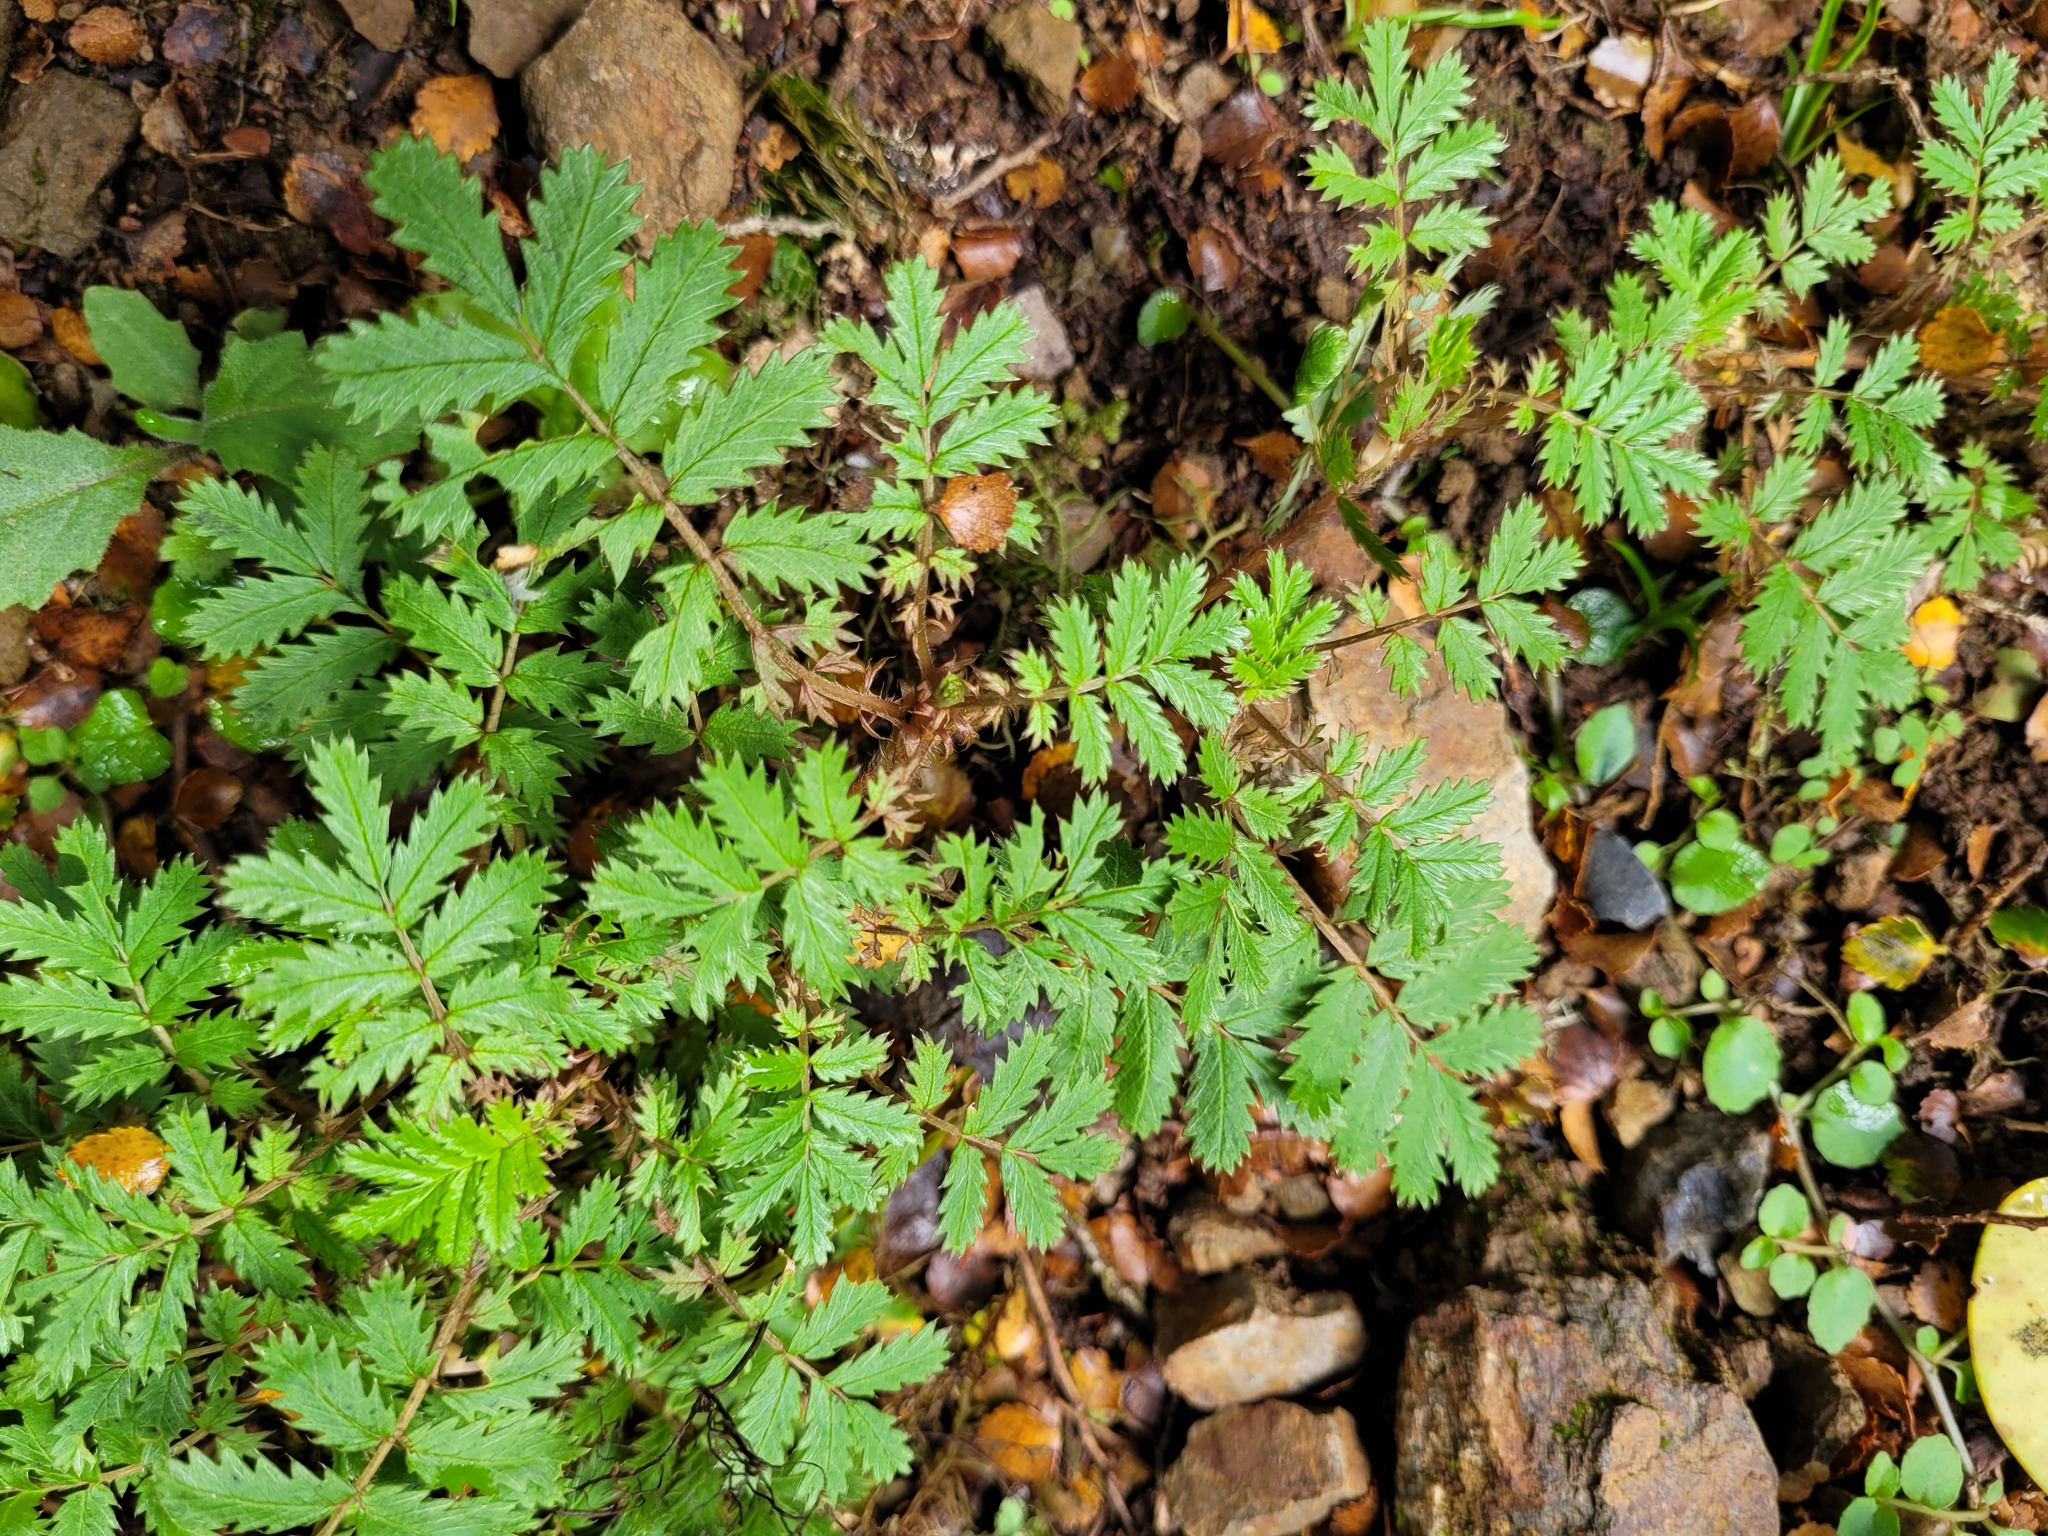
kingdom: Plantae
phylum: Tracheophyta
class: Magnoliopsida
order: Rosales
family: Rosaceae
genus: Acaena
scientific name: Acaena anserinifolia
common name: Bronze pirri-pirri-bur
